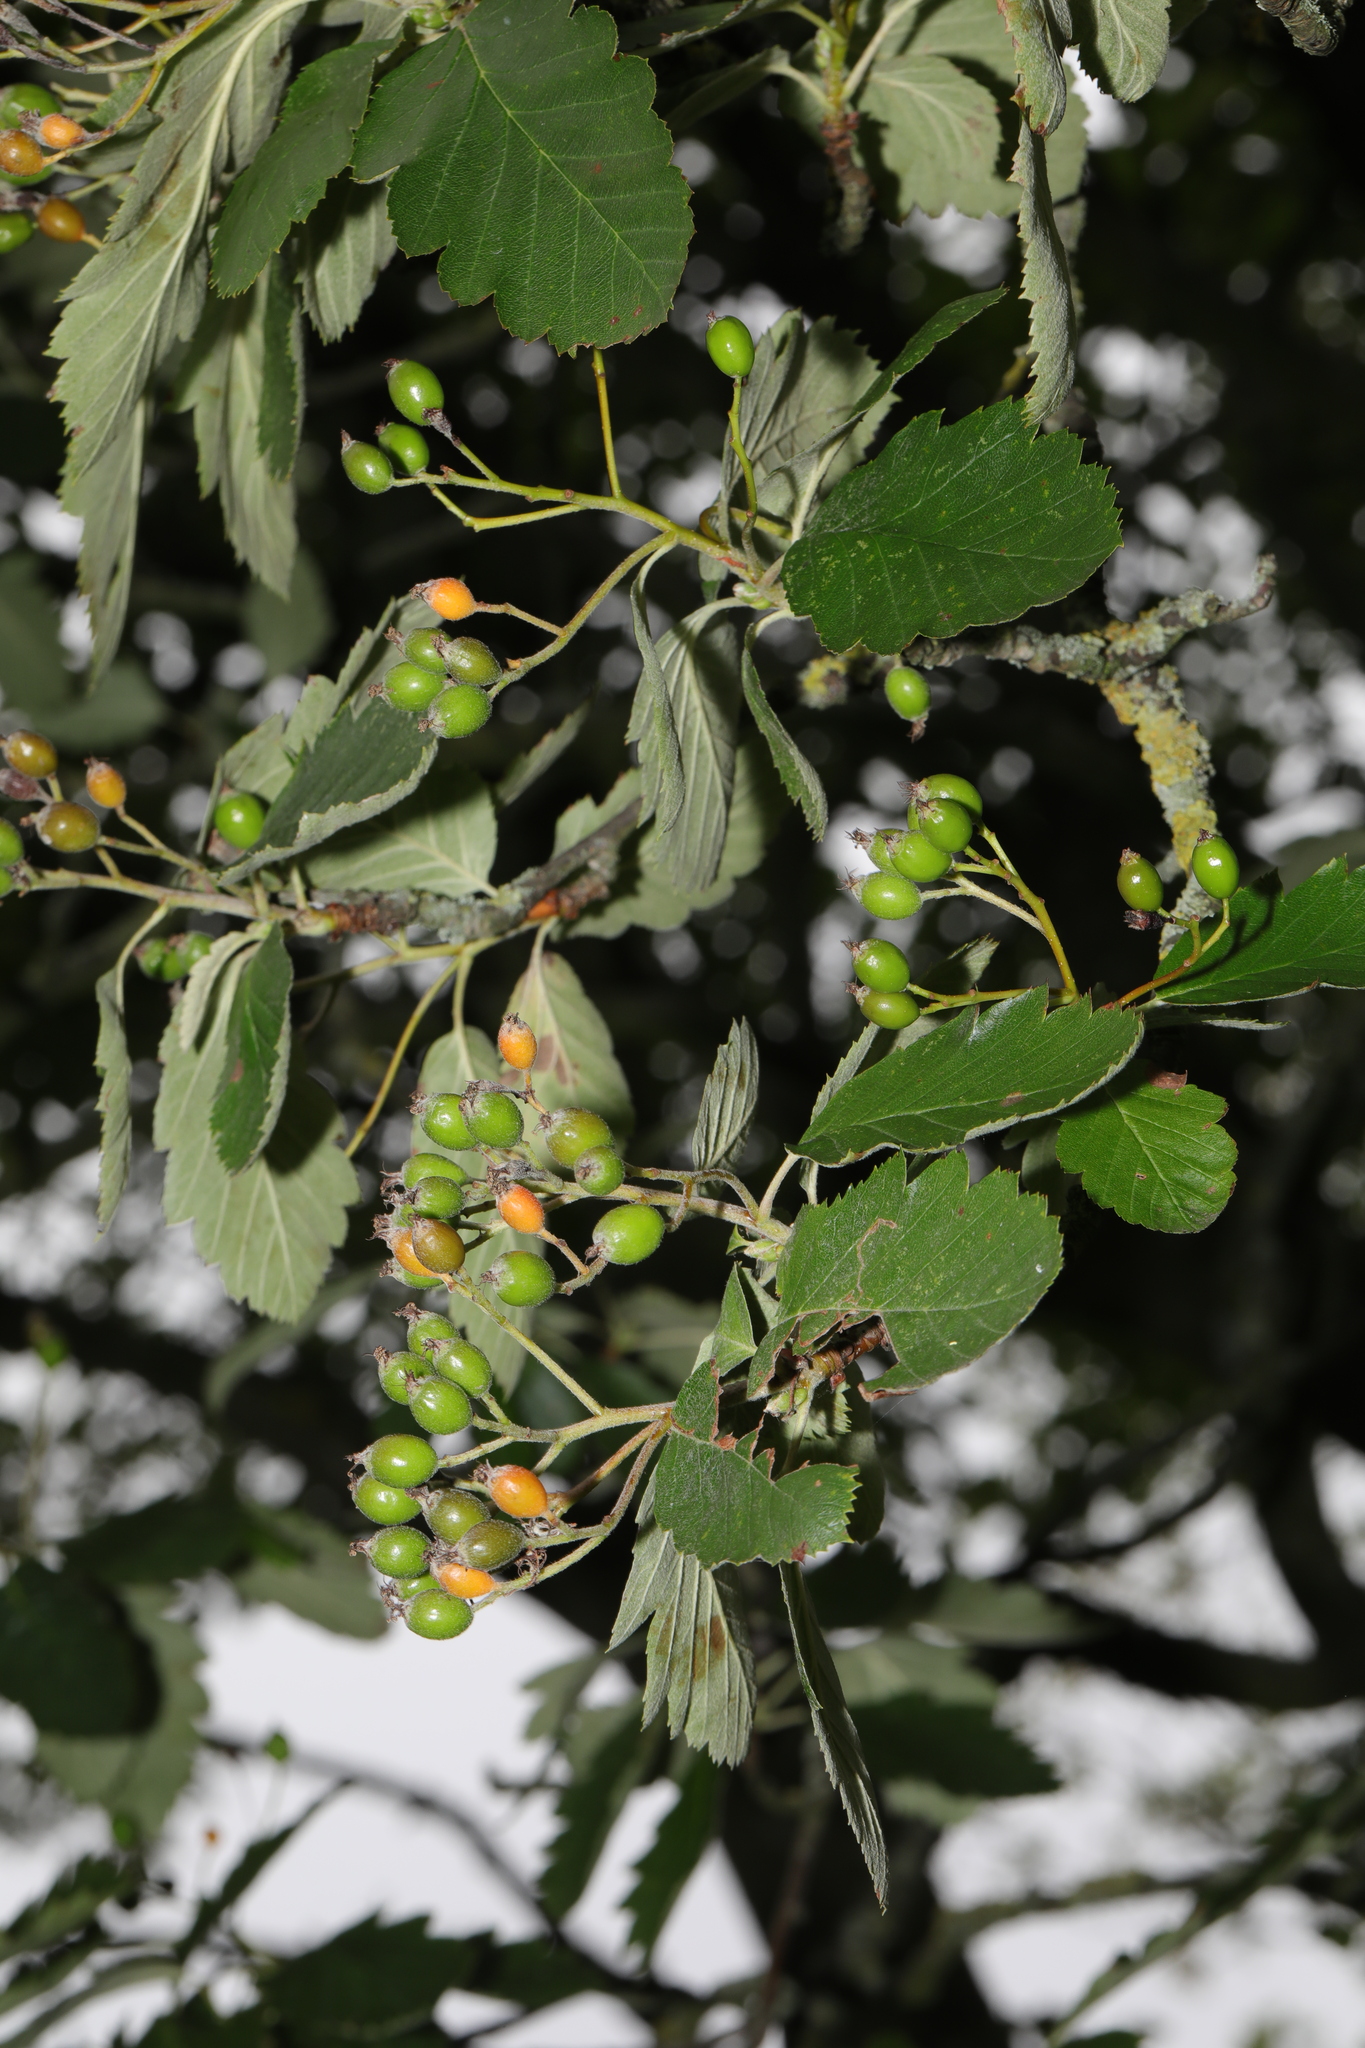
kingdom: Plantae
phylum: Tracheophyta
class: Magnoliopsida
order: Rosales
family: Rosaceae
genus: Scandosorbus
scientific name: Scandosorbus intermedia
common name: Swedish whitebeam
